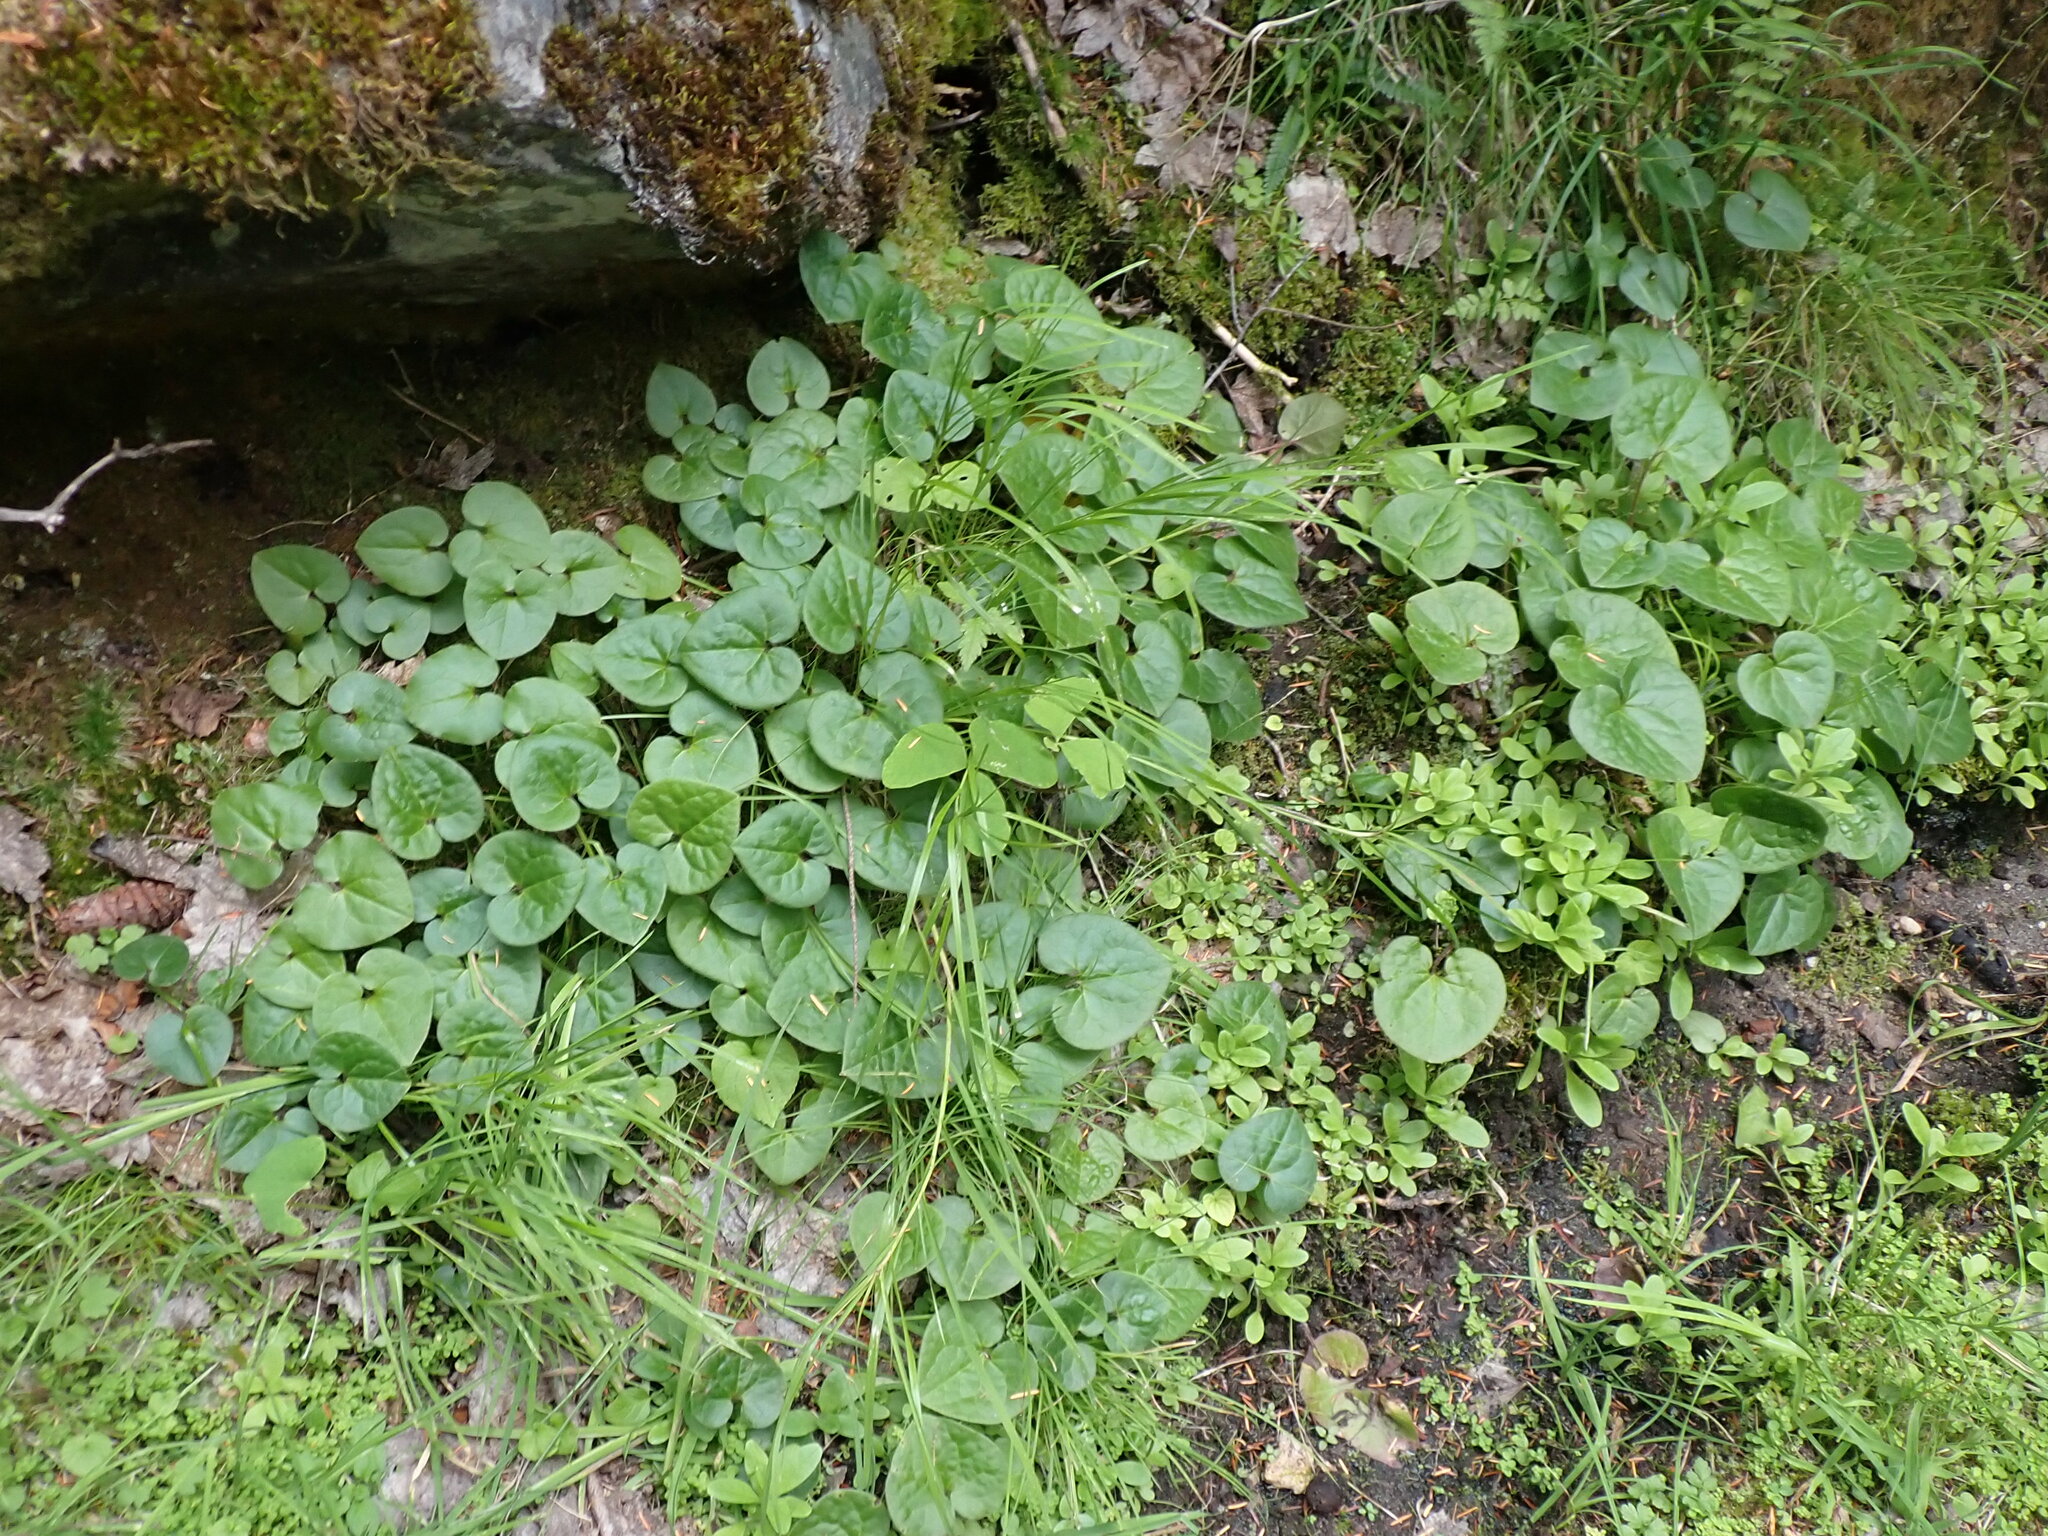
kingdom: Plantae
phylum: Tracheophyta
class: Magnoliopsida
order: Piperales
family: Aristolochiaceae
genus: Asarum
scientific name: Asarum caudatum
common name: Wild ginger
